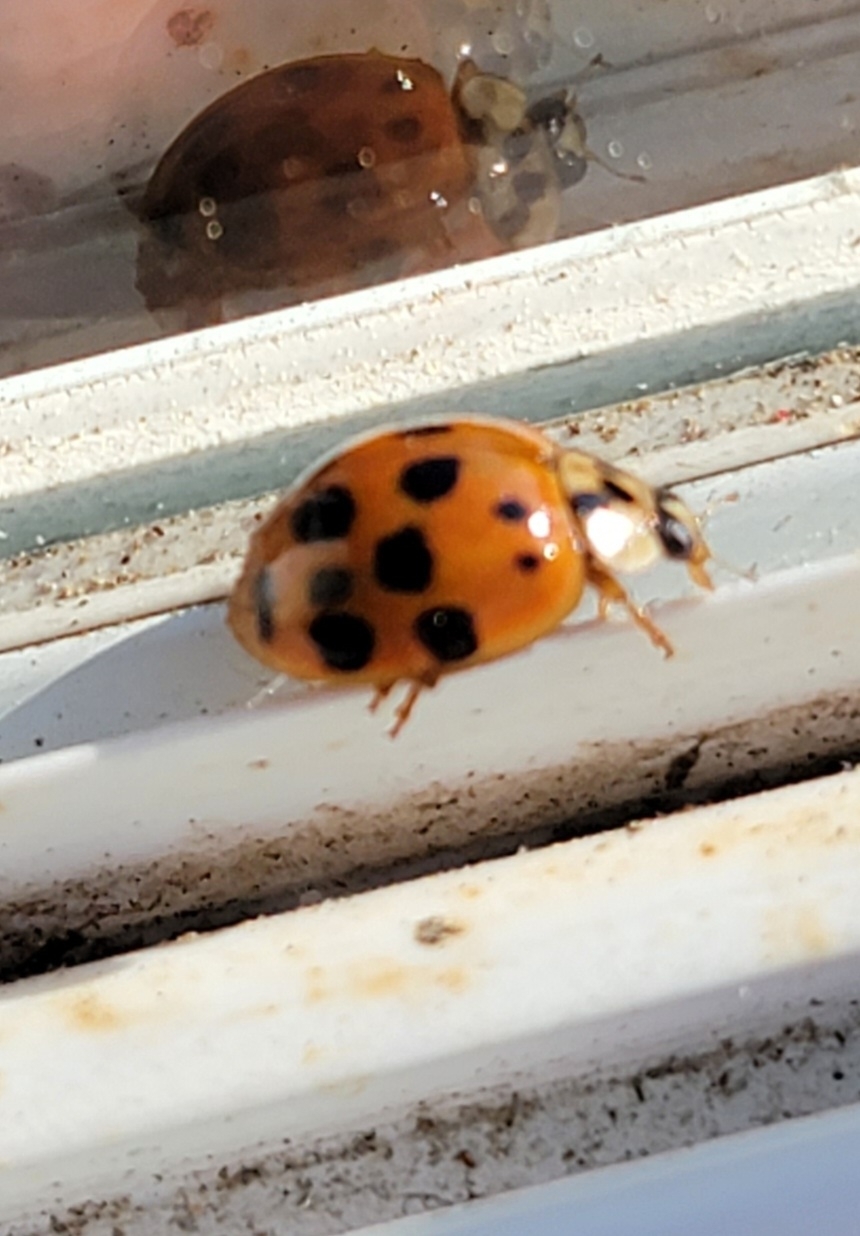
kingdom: Animalia
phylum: Arthropoda
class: Insecta
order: Coleoptera
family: Coccinellidae
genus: Harmonia
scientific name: Harmonia axyridis
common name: Harlequin ladybird
